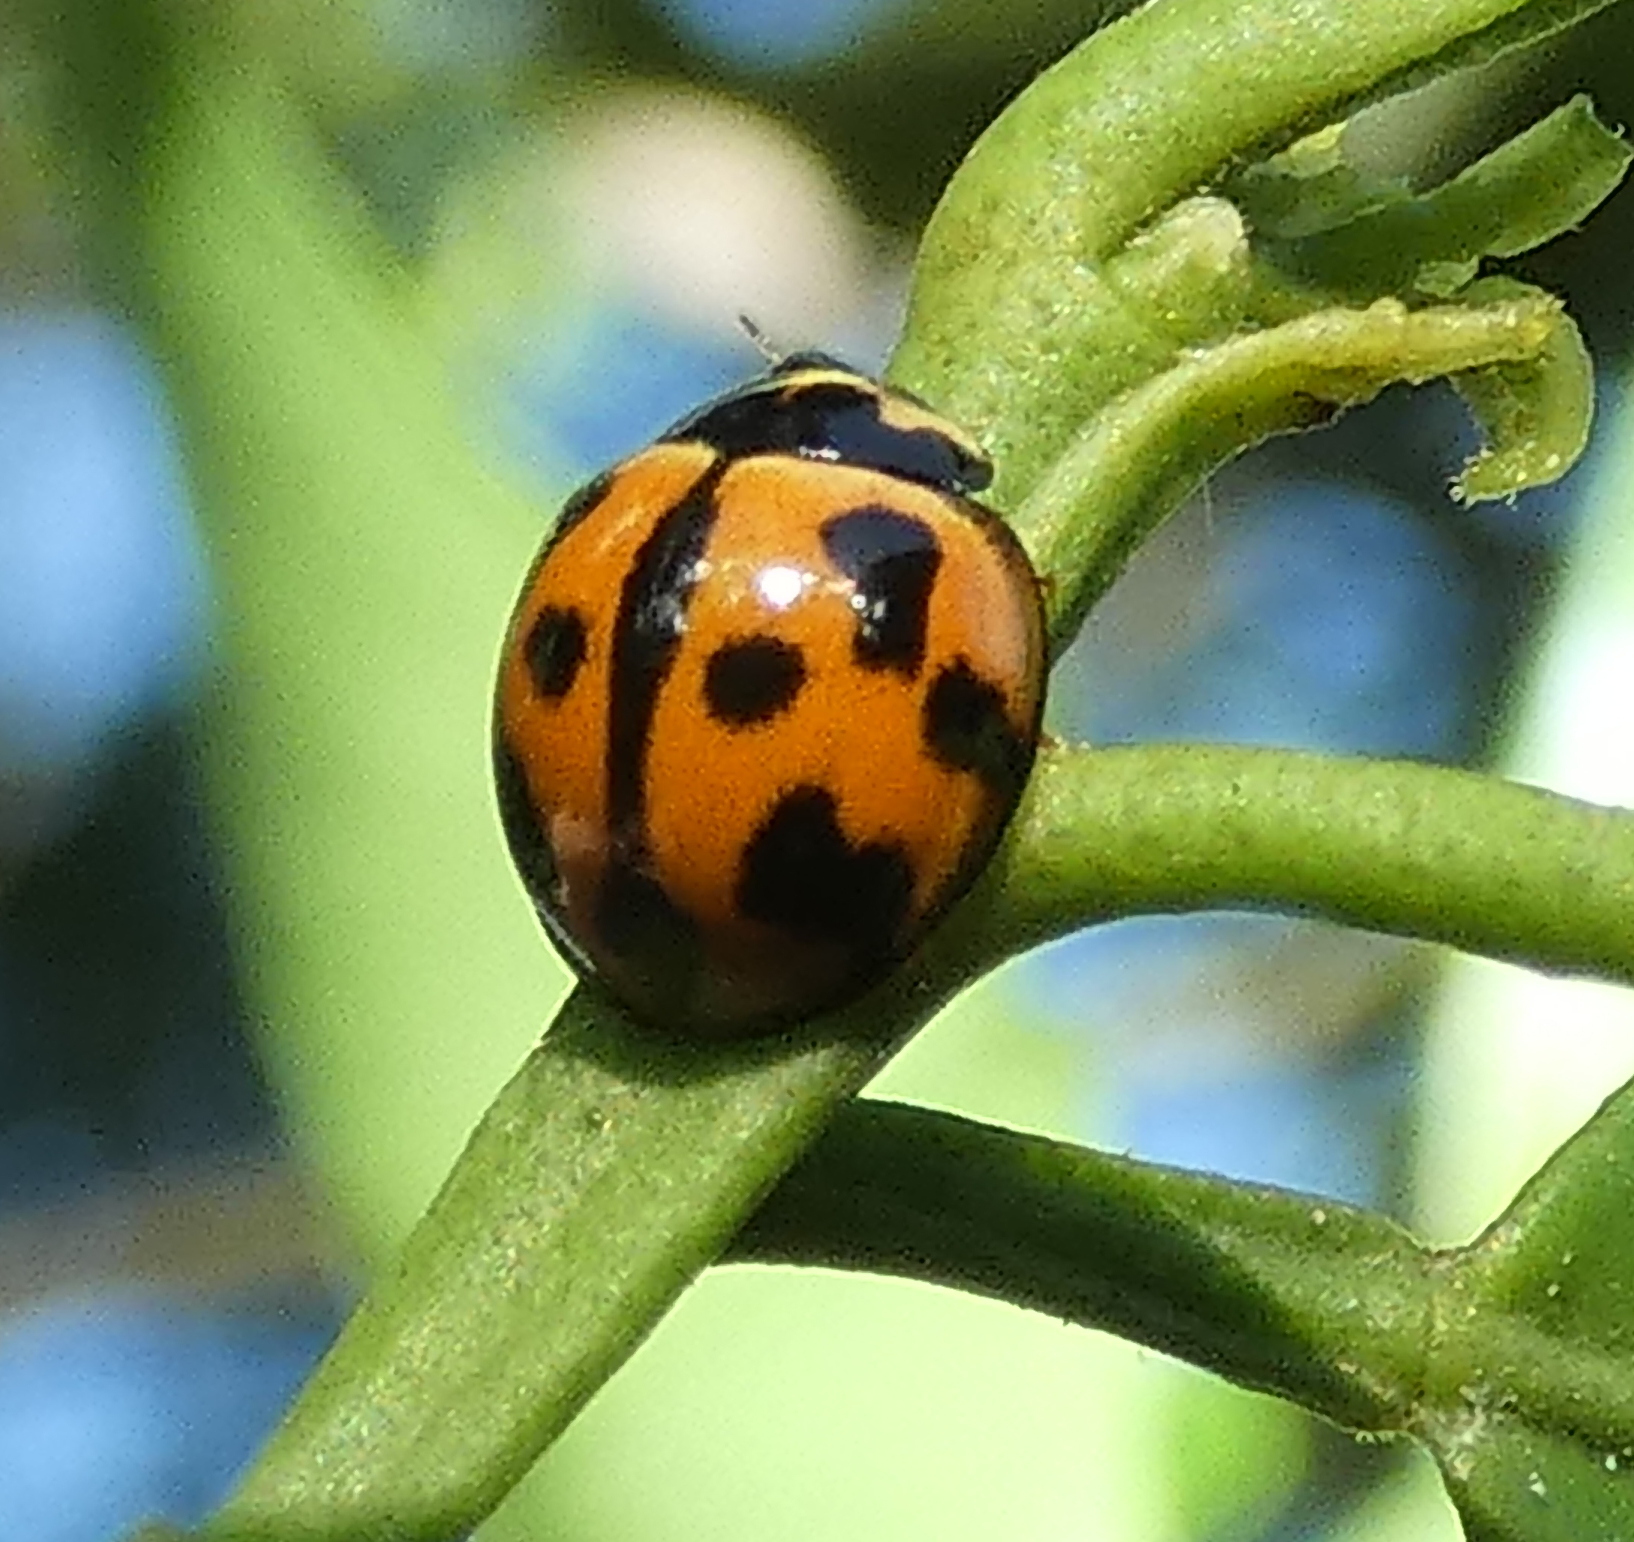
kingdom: Animalia
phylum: Arthropoda
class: Insecta
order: Coleoptera
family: Coccinellidae
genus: Coelophora
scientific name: Coelophora inaequalis
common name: Common australian lady beetle
